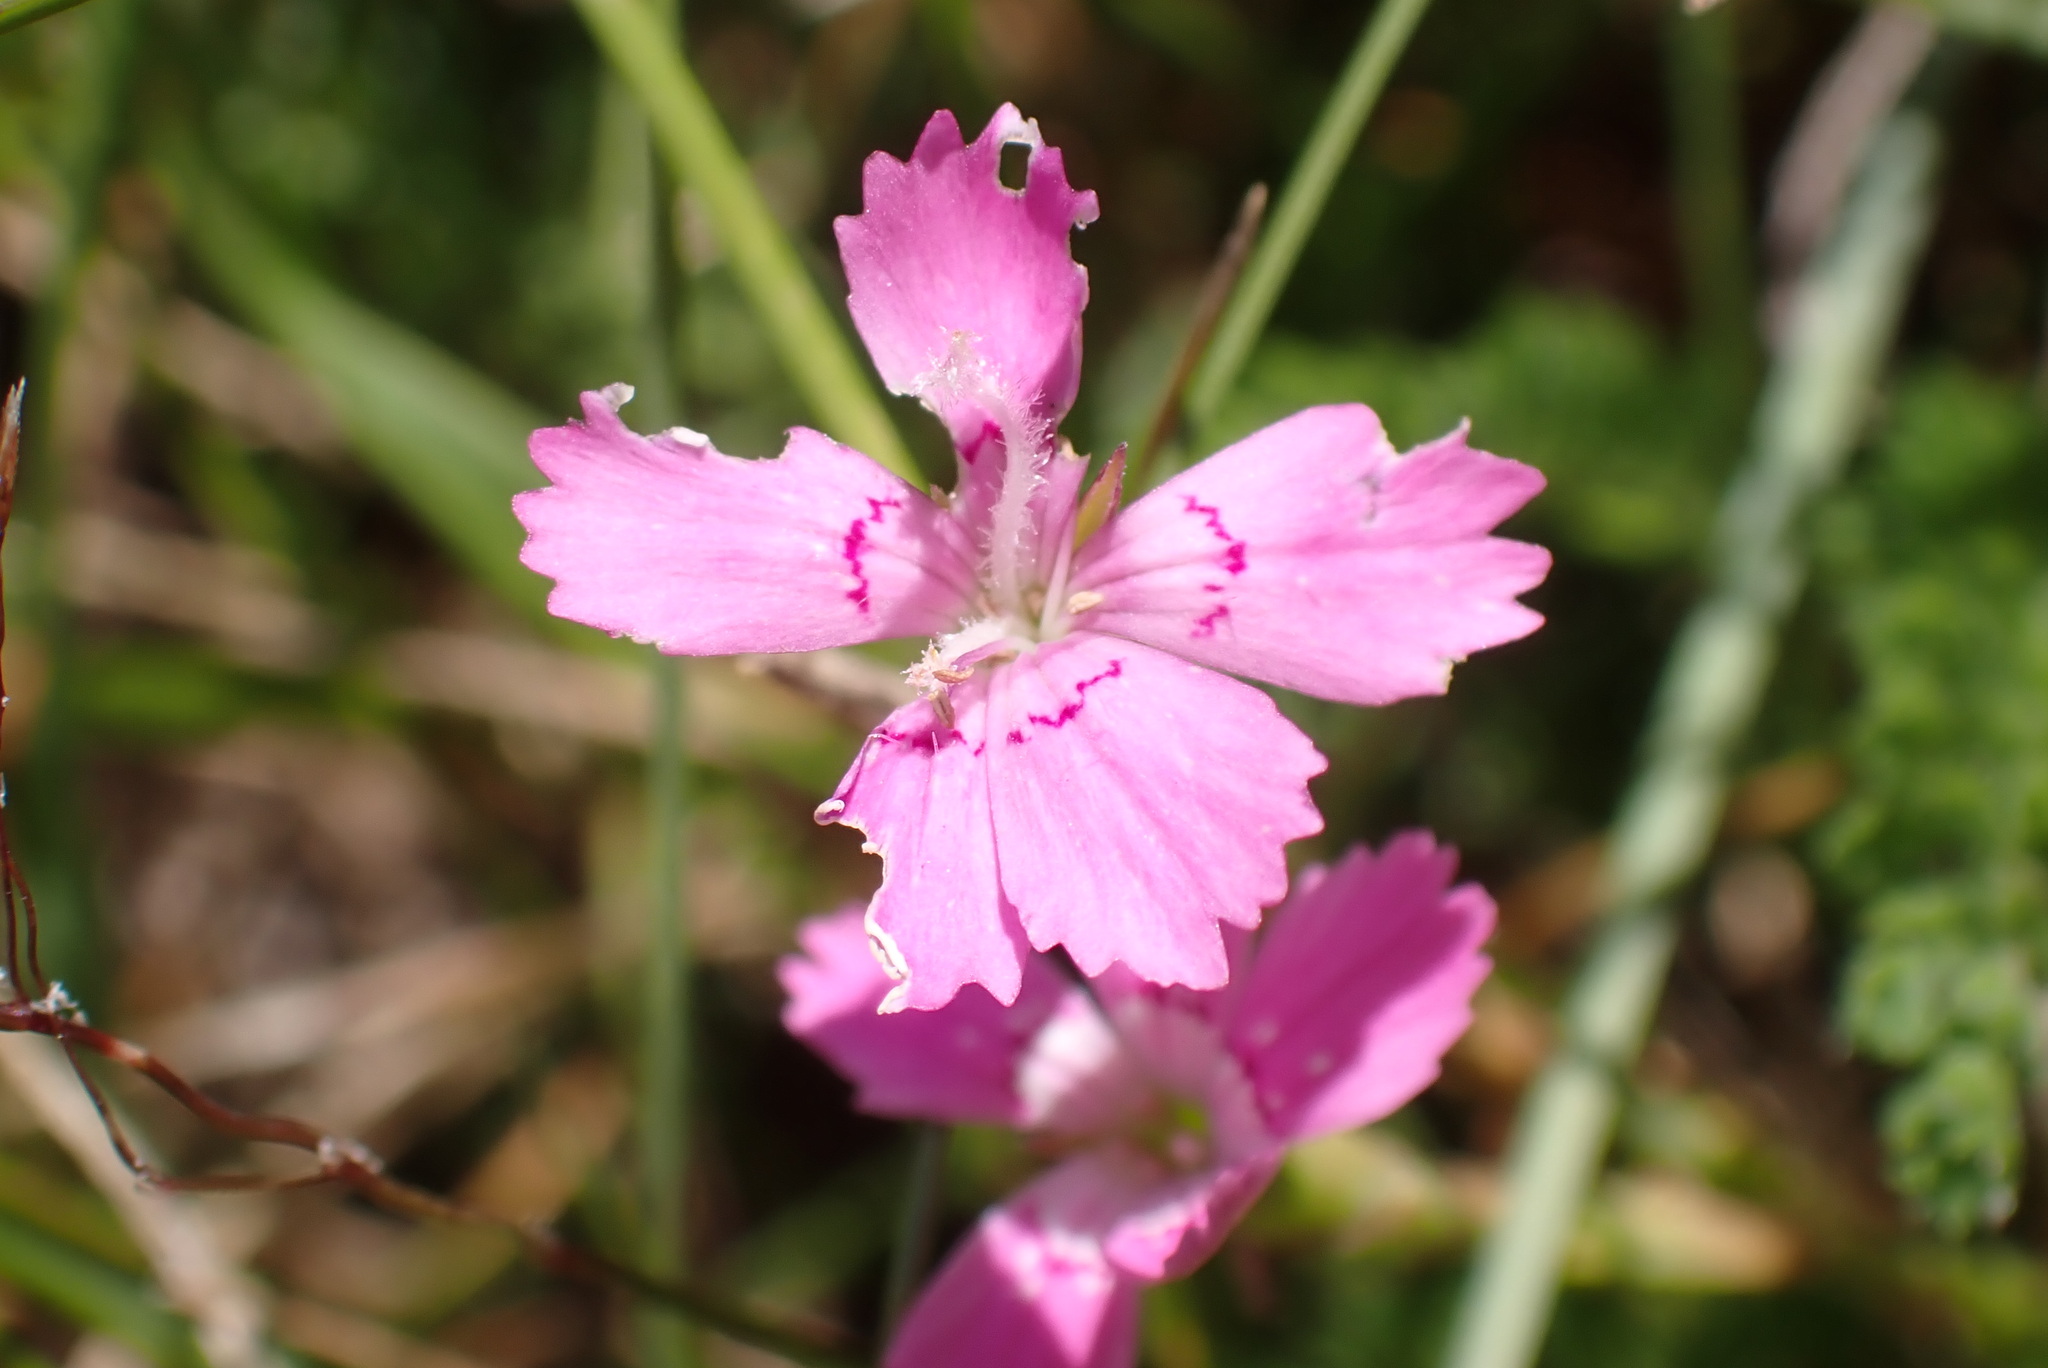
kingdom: Plantae
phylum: Tracheophyta
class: Magnoliopsida
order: Caryophyllales
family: Caryophyllaceae
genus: Dianthus
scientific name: Dianthus deltoides
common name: Maiden pink
